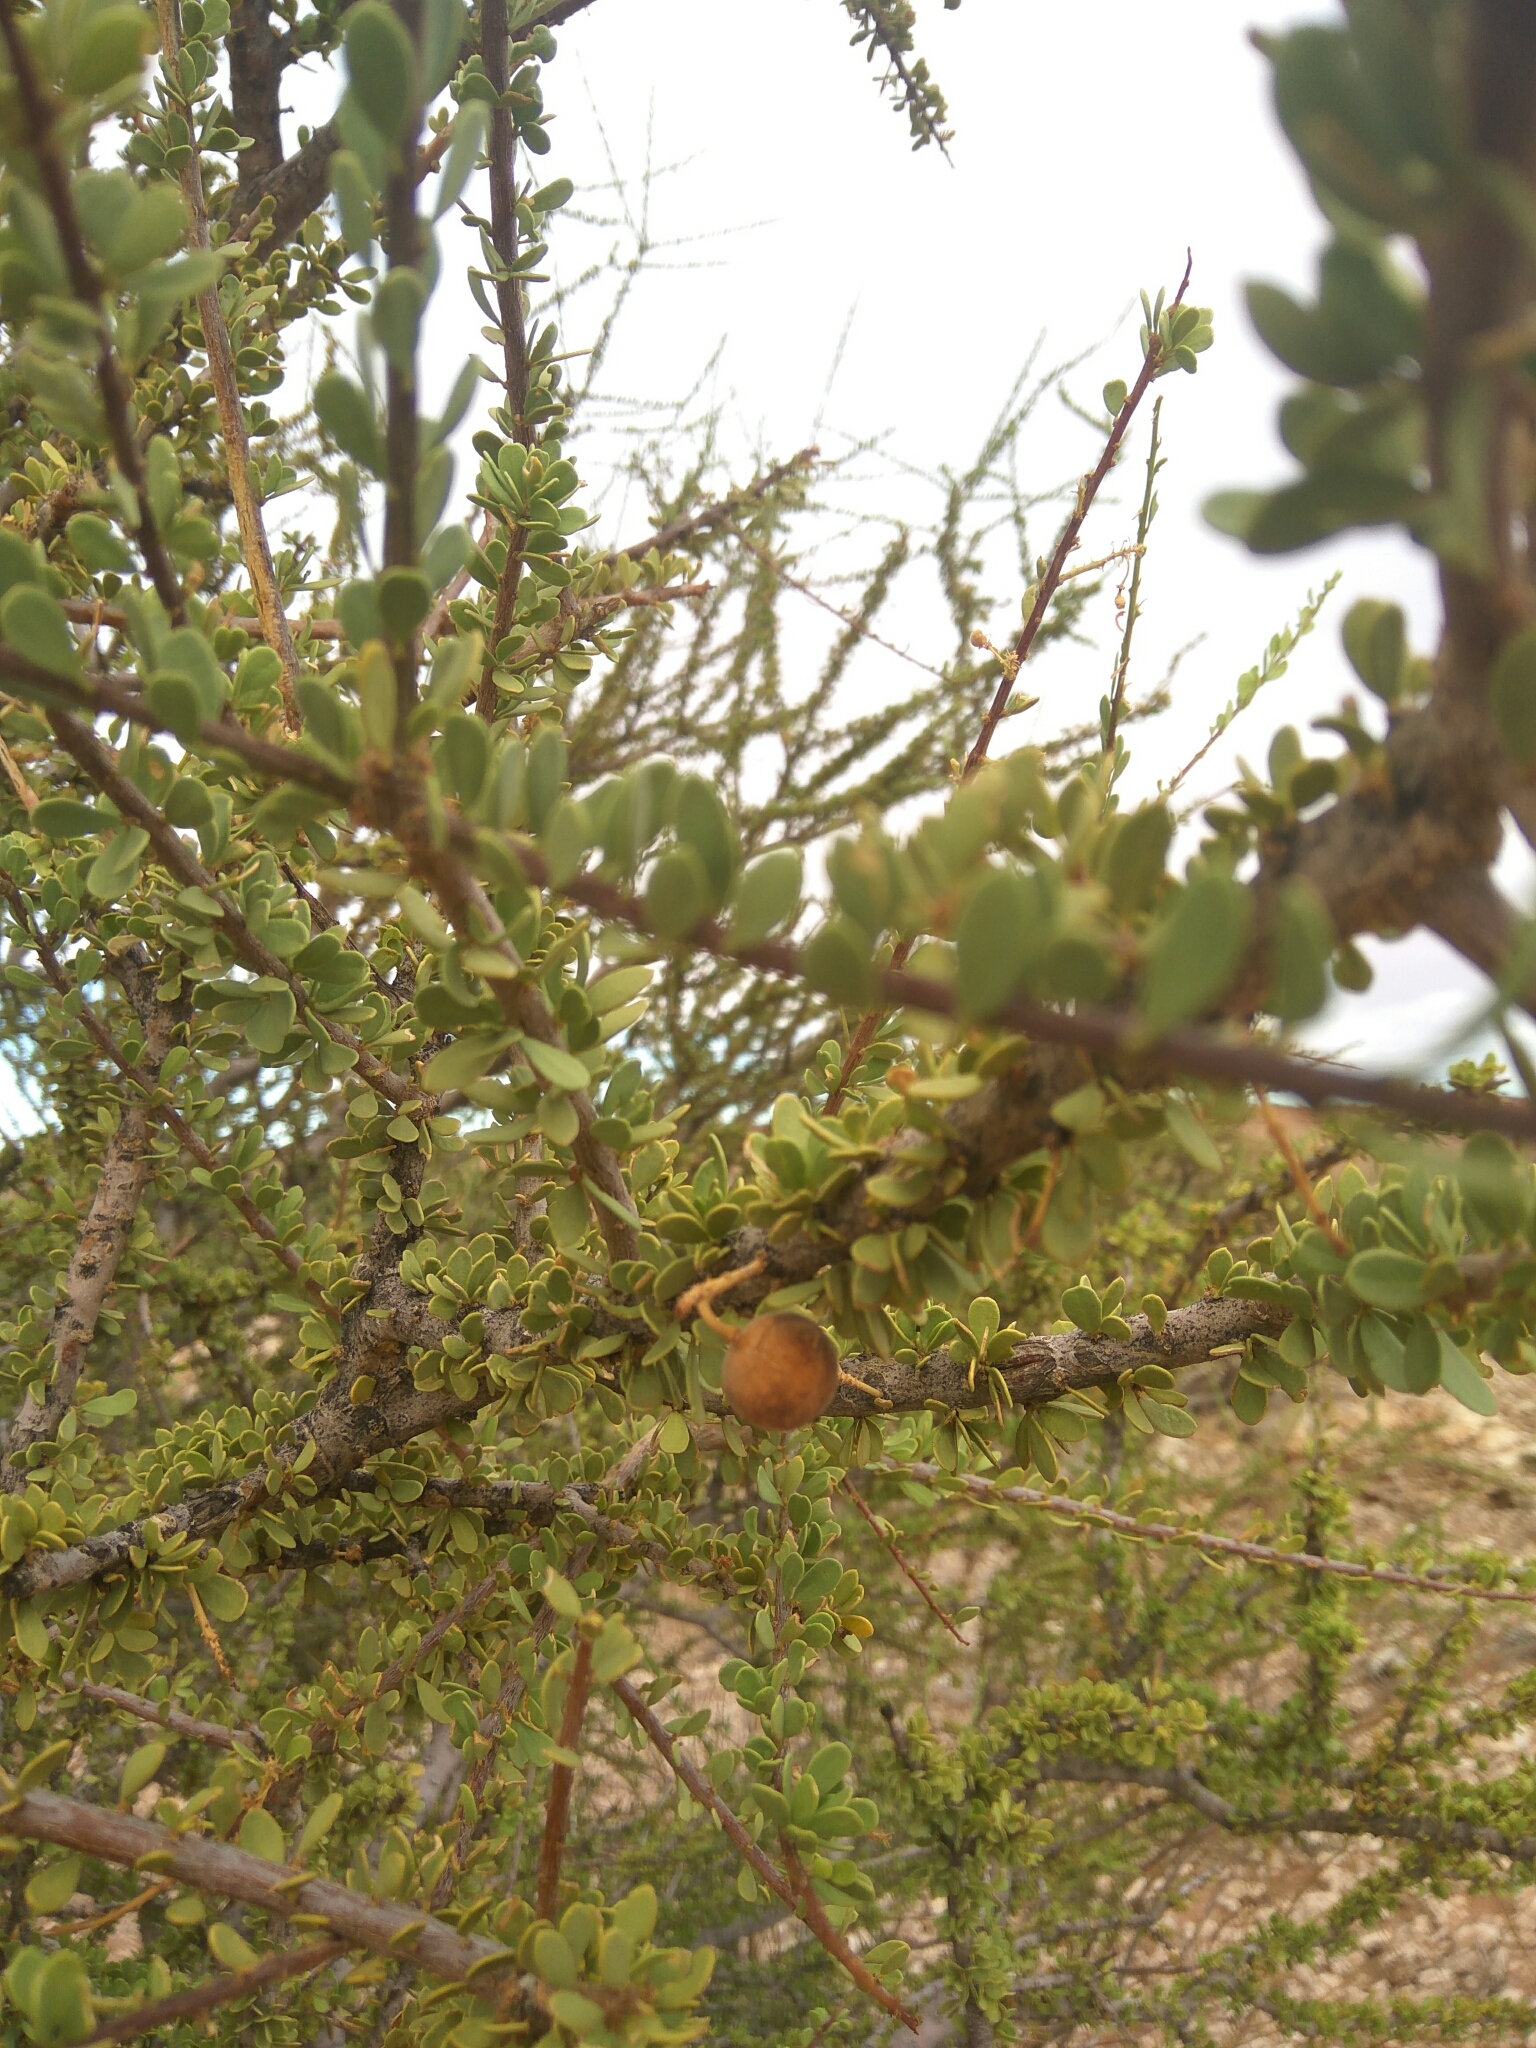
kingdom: Plantae
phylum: Tracheophyta
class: Magnoliopsida
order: Brassicales
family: Capparaceae
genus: Boscia
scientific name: Boscia foetida
